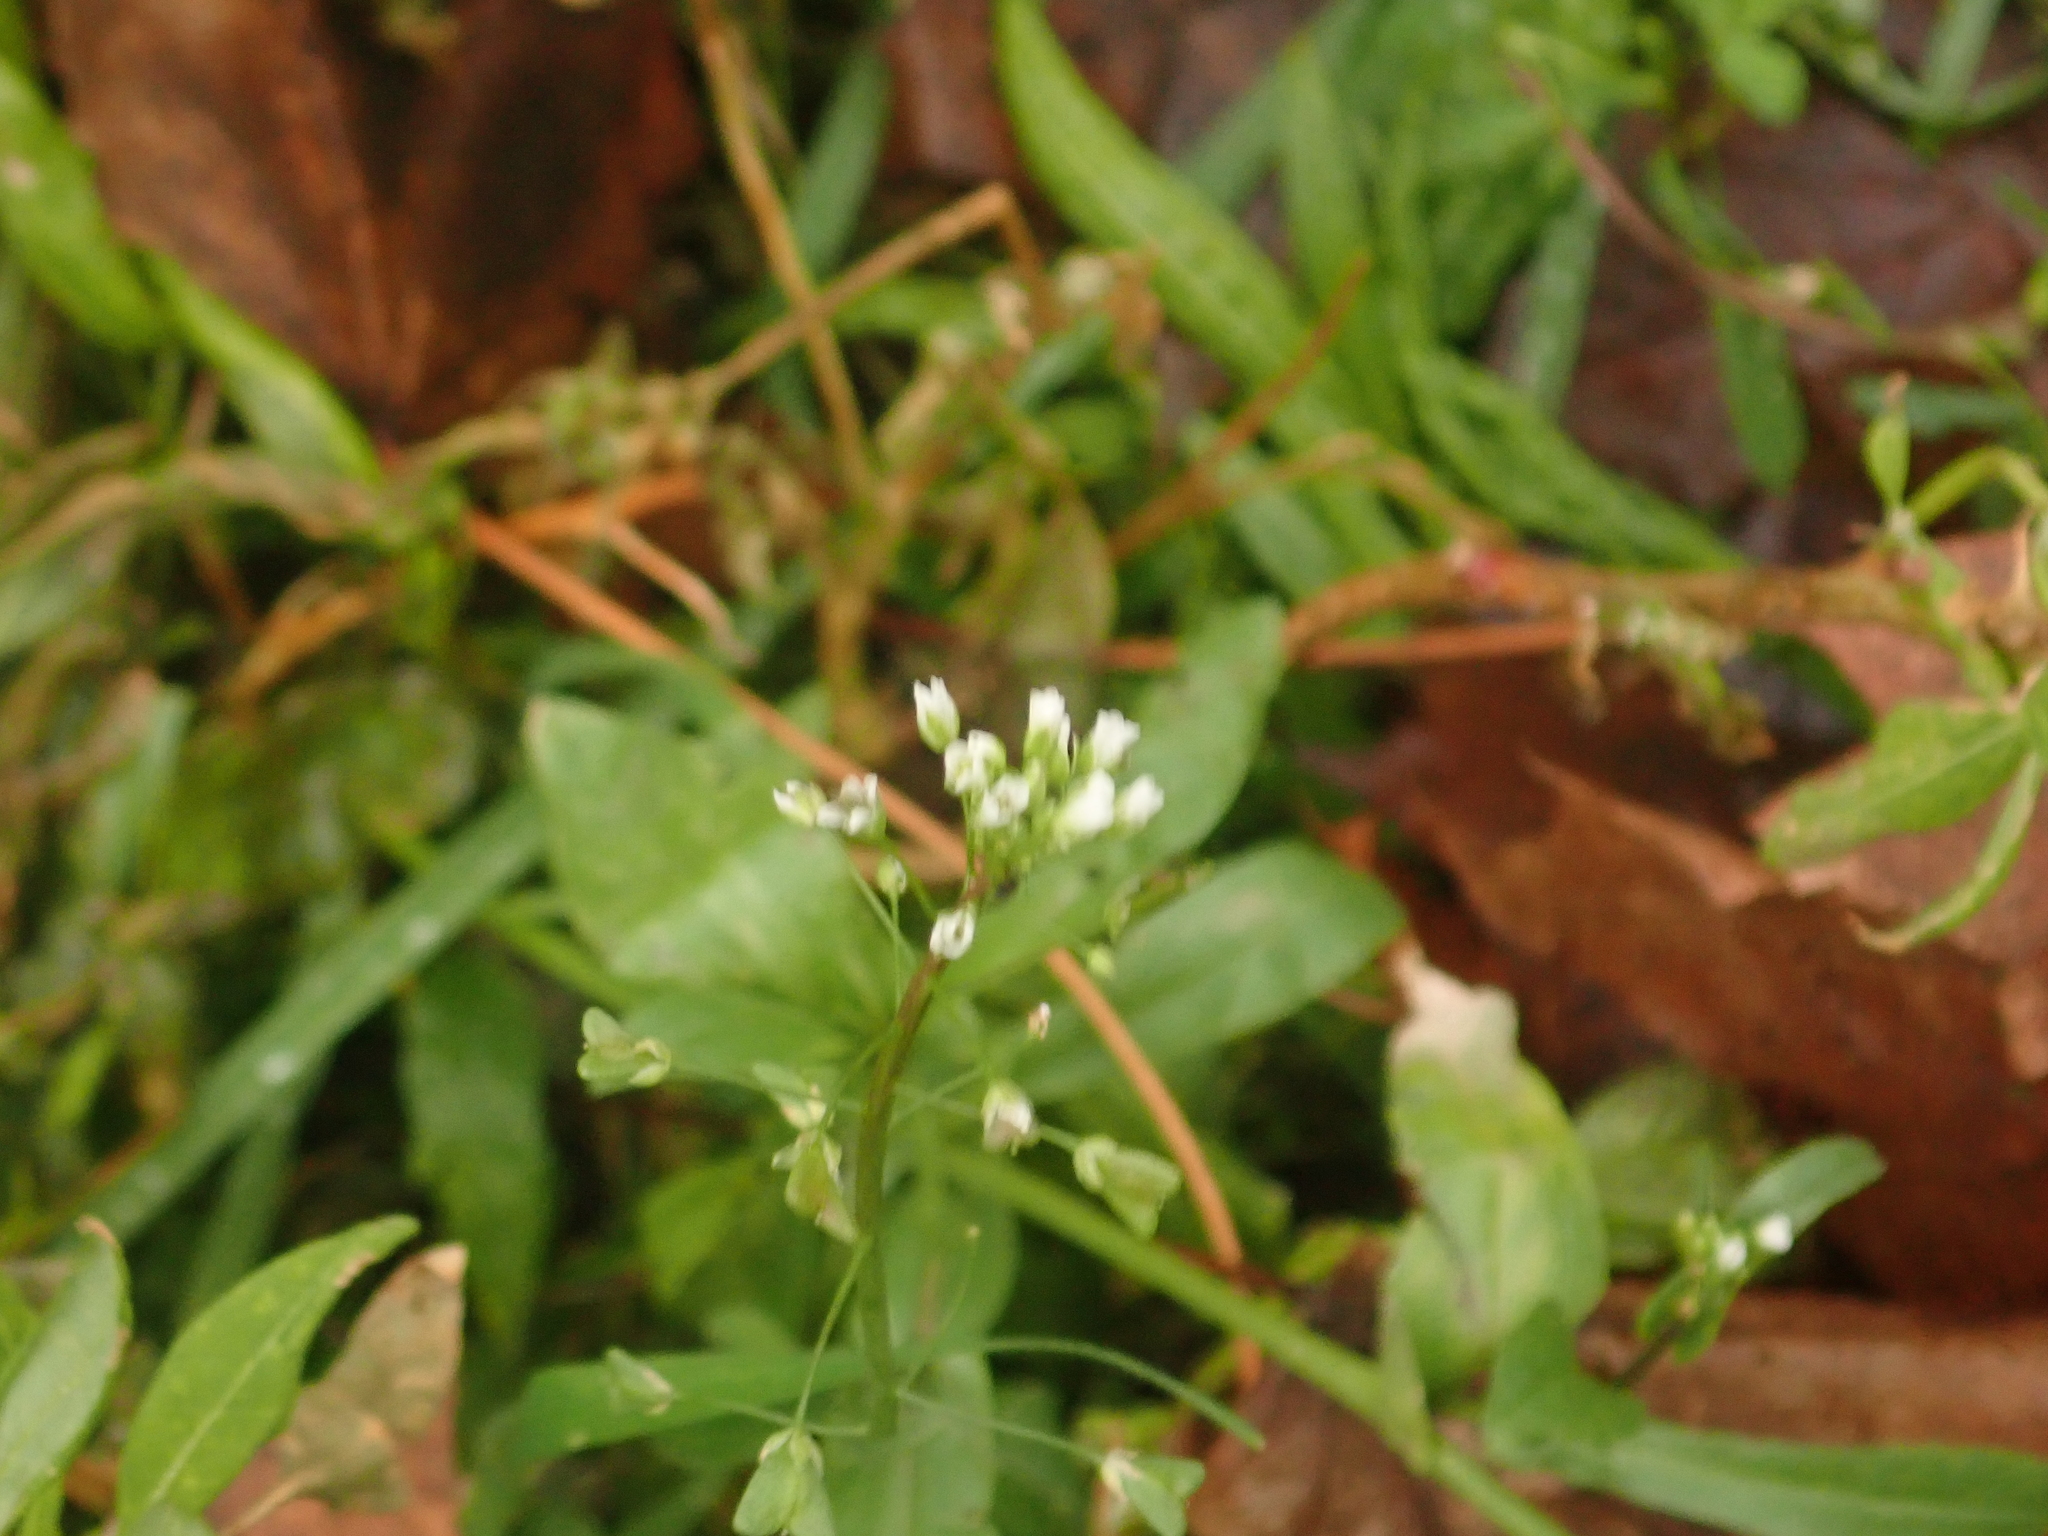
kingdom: Plantae
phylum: Tracheophyta
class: Magnoliopsida
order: Brassicales
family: Brassicaceae
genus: Capsella
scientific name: Capsella bursa-pastoris
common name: Shepherd's purse
